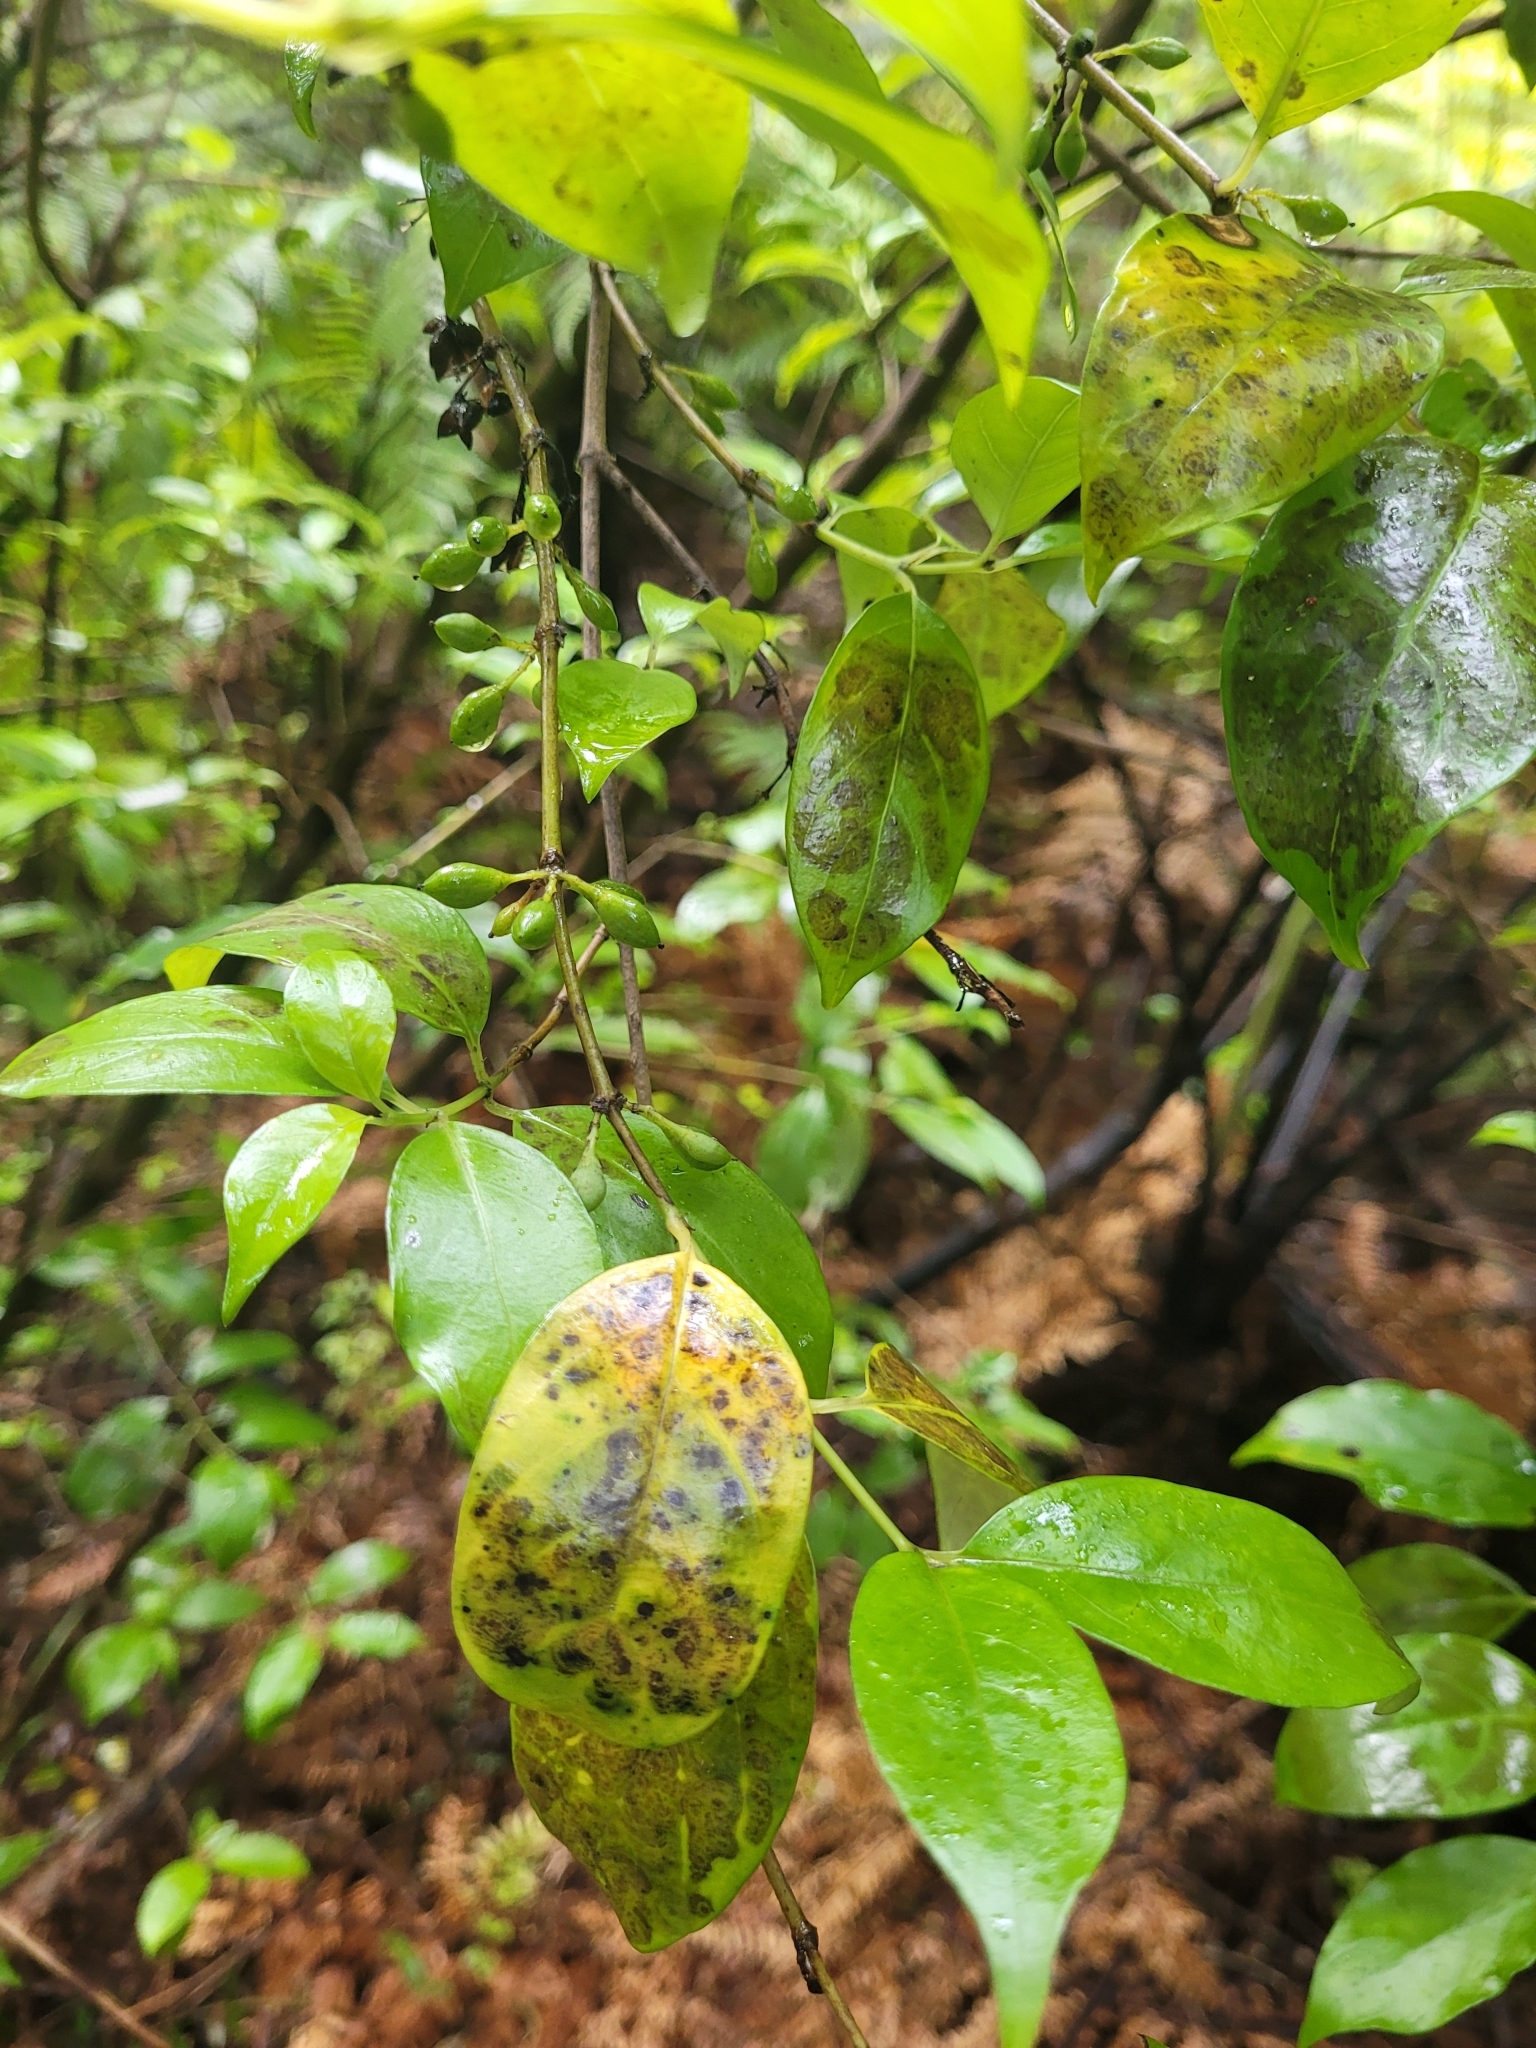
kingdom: Plantae
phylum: Tracheophyta
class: Magnoliopsida
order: Gentianales
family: Loganiaceae
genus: Geniostoma
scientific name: Geniostoma ligustrifolium
